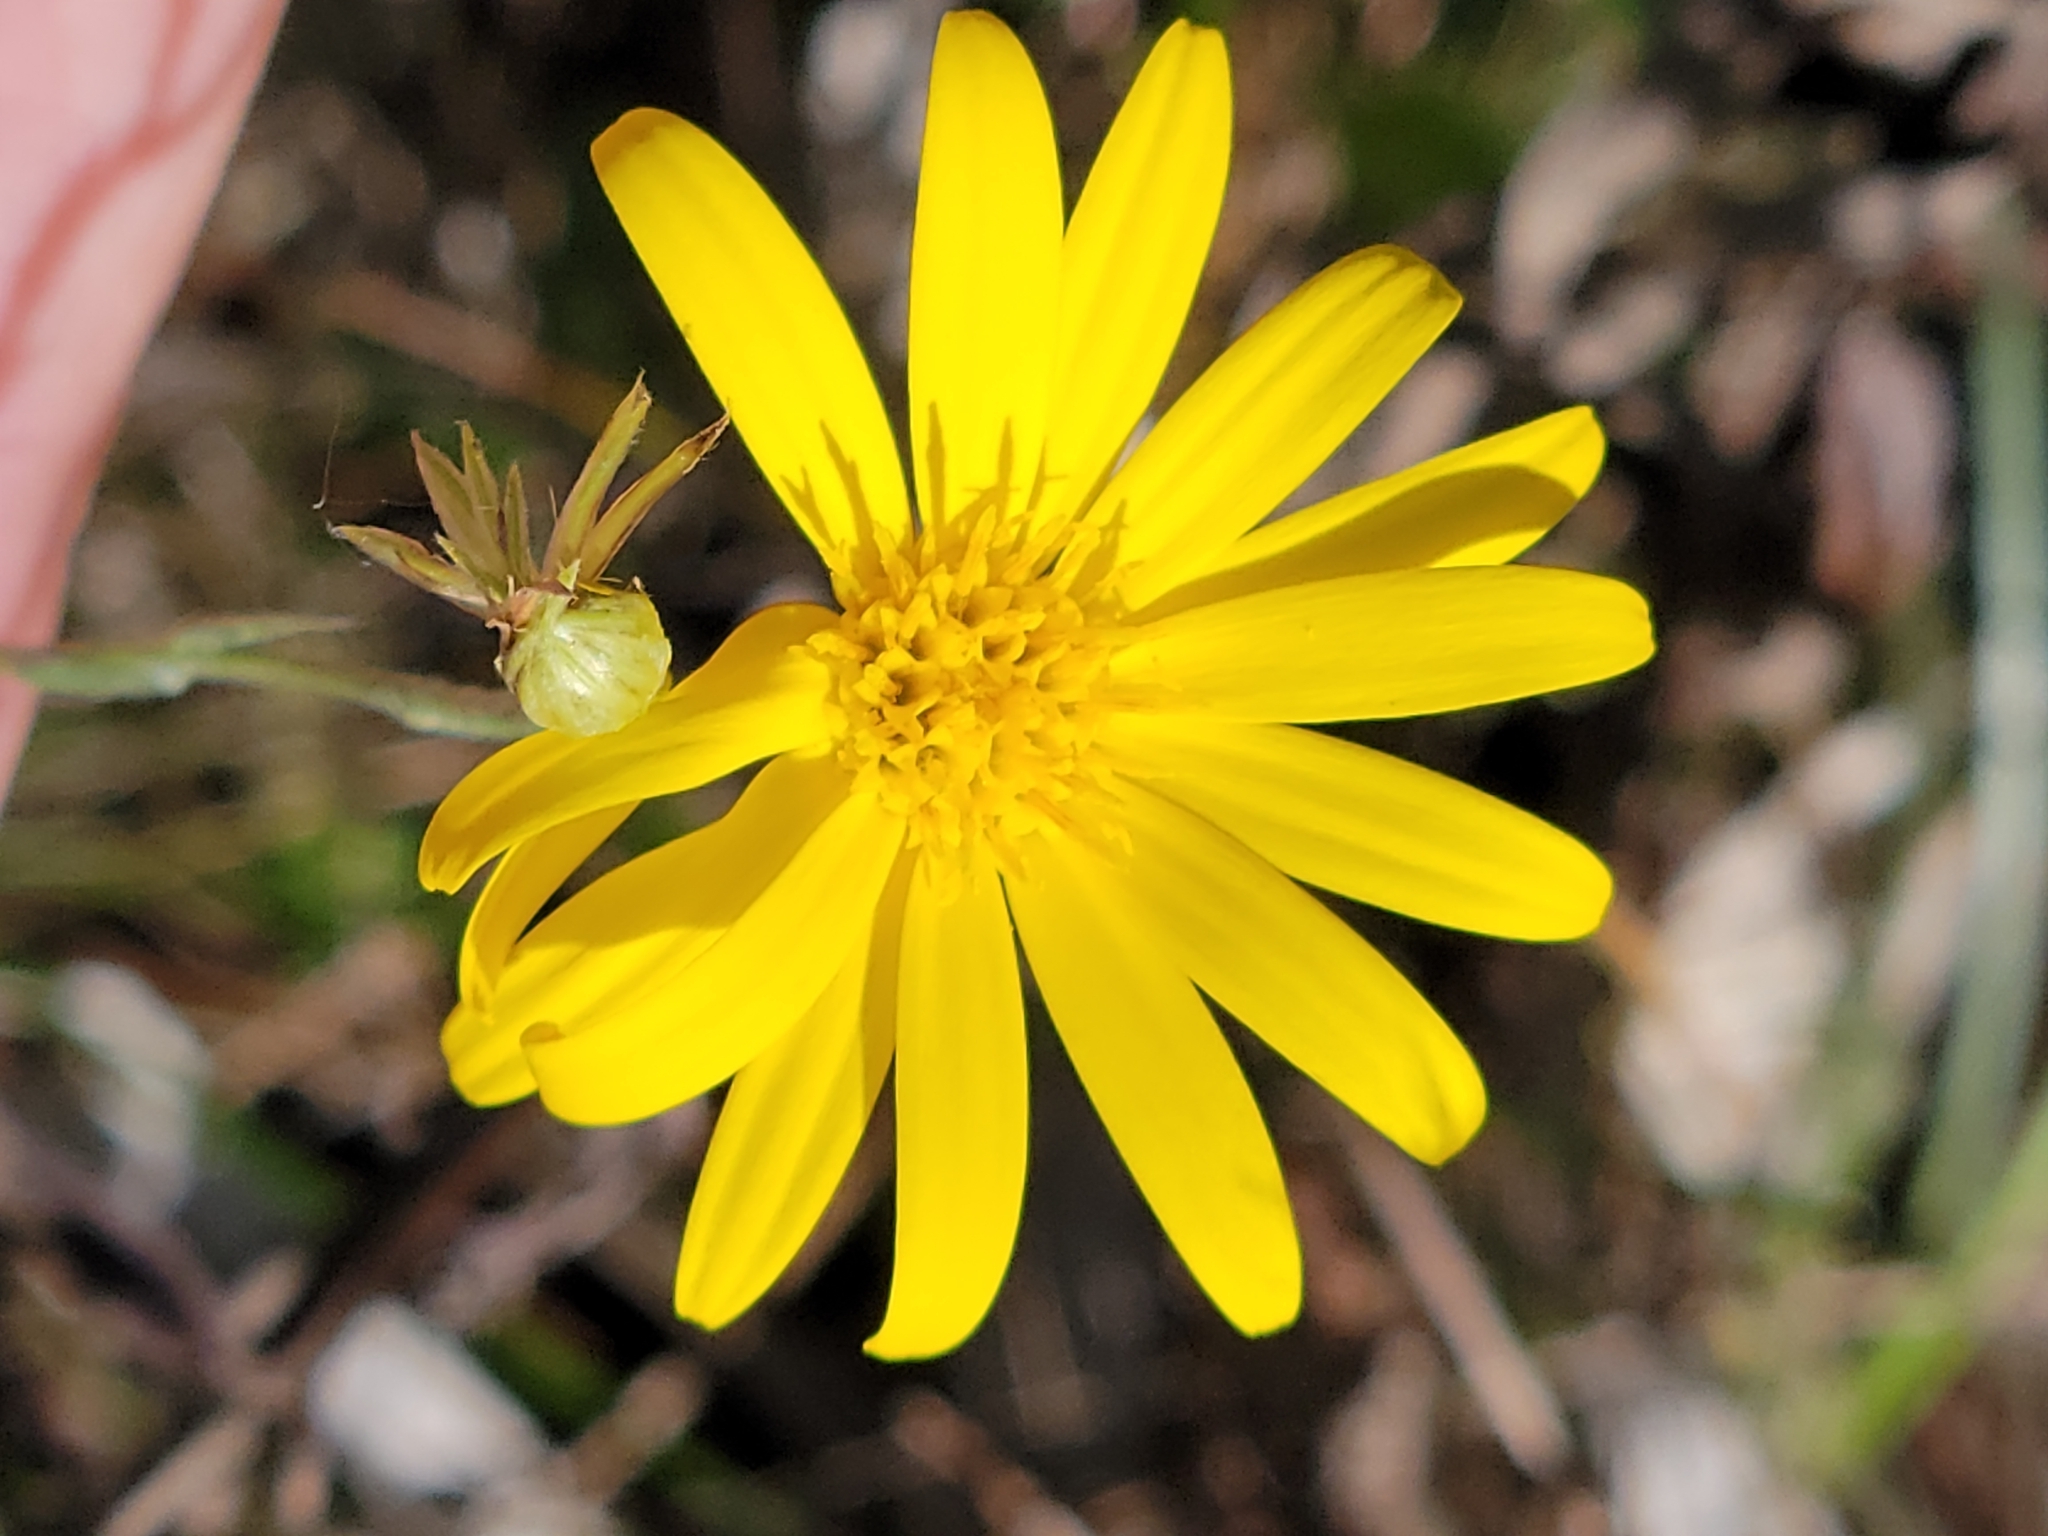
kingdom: Plantae
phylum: Tracheophyta
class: Magnoliopsida
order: Asterales
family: Asteraceae
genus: Pityopsis
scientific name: Pityopsis tracyi
